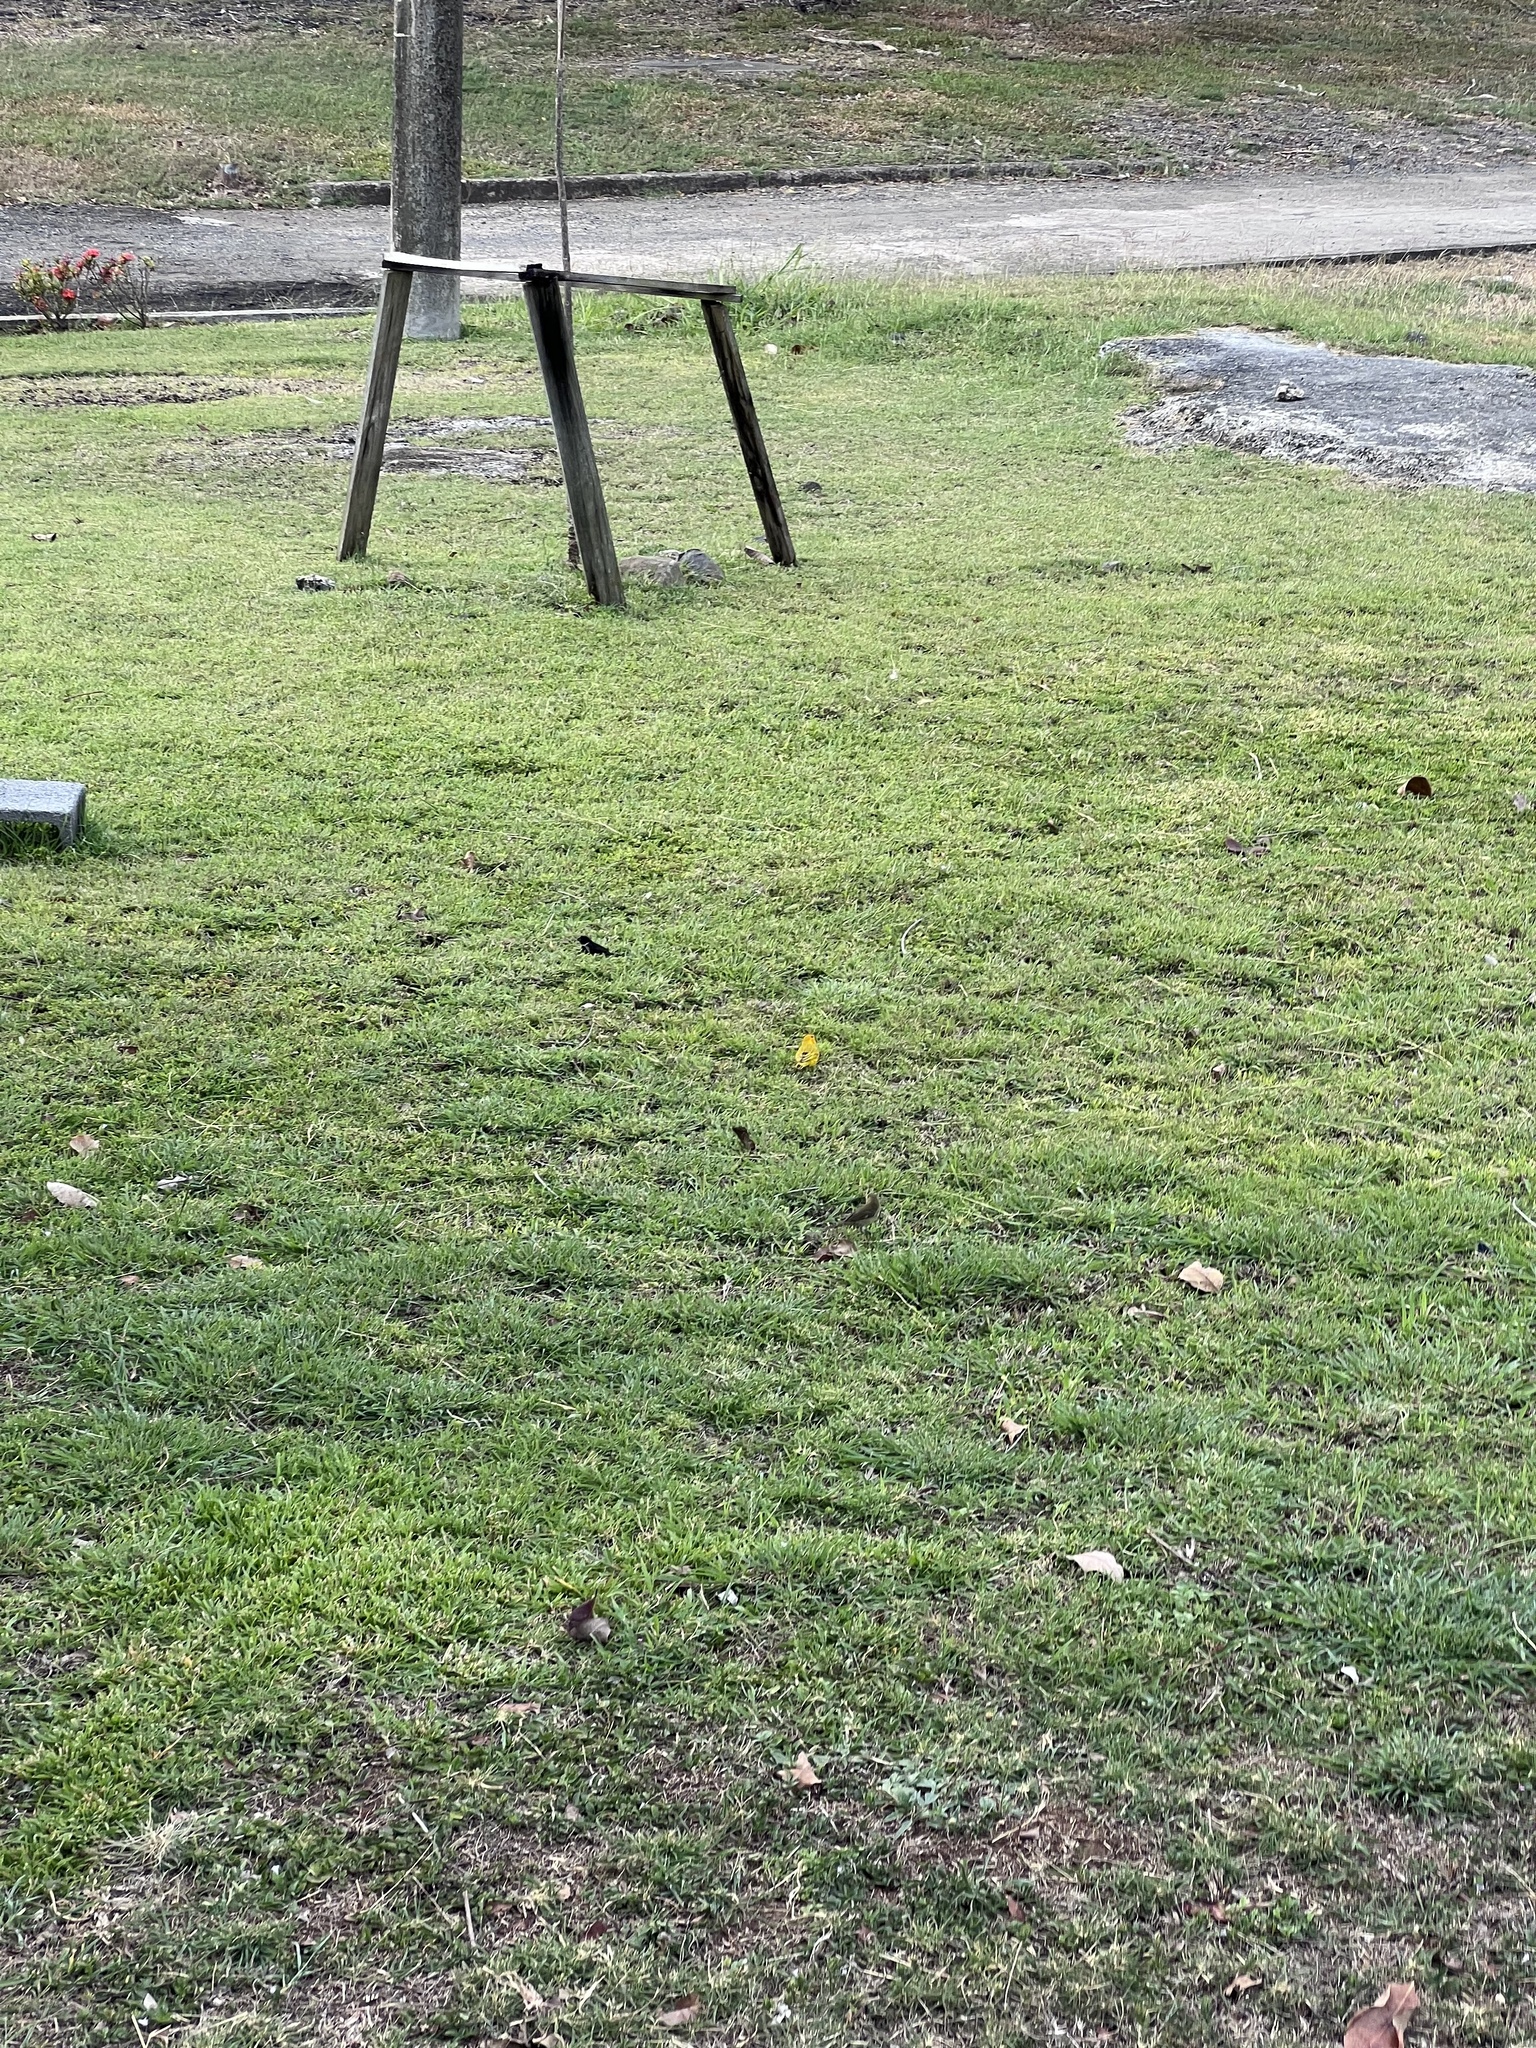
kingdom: Animalia
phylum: Chordata
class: Aves
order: Passeriformes
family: Thraupidae
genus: Sicalis
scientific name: Sicalis flaveola
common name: Saffron finch
